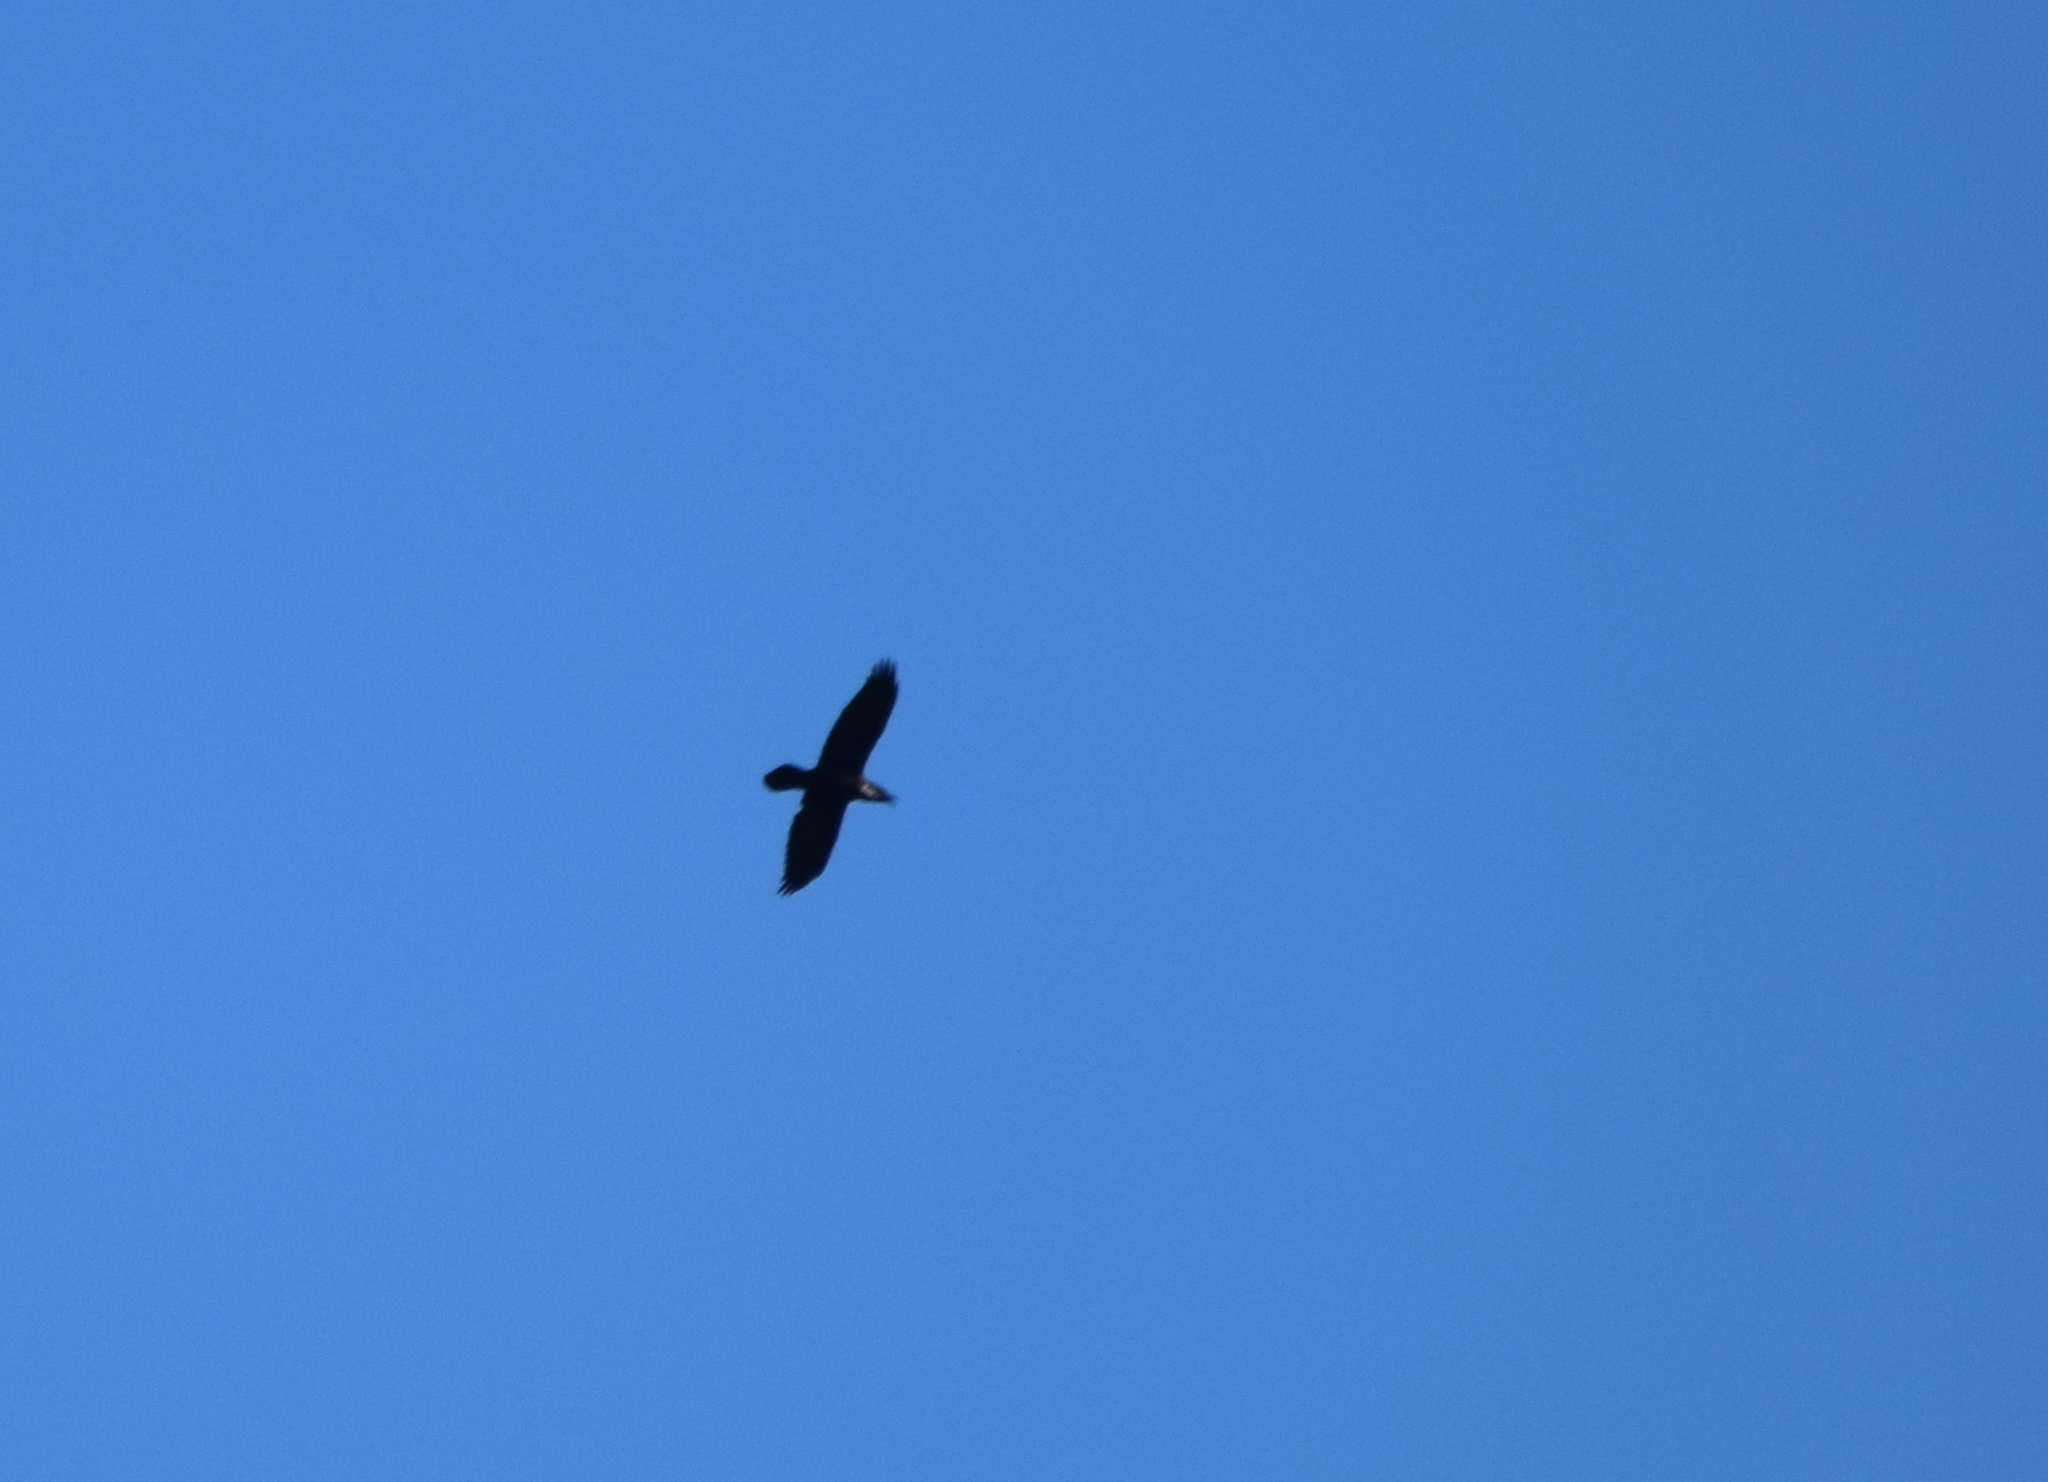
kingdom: Animalia
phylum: Chordata
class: Aves
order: Passeriformes
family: Corvidae
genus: Corvus
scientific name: Corvus corax
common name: Common raven
